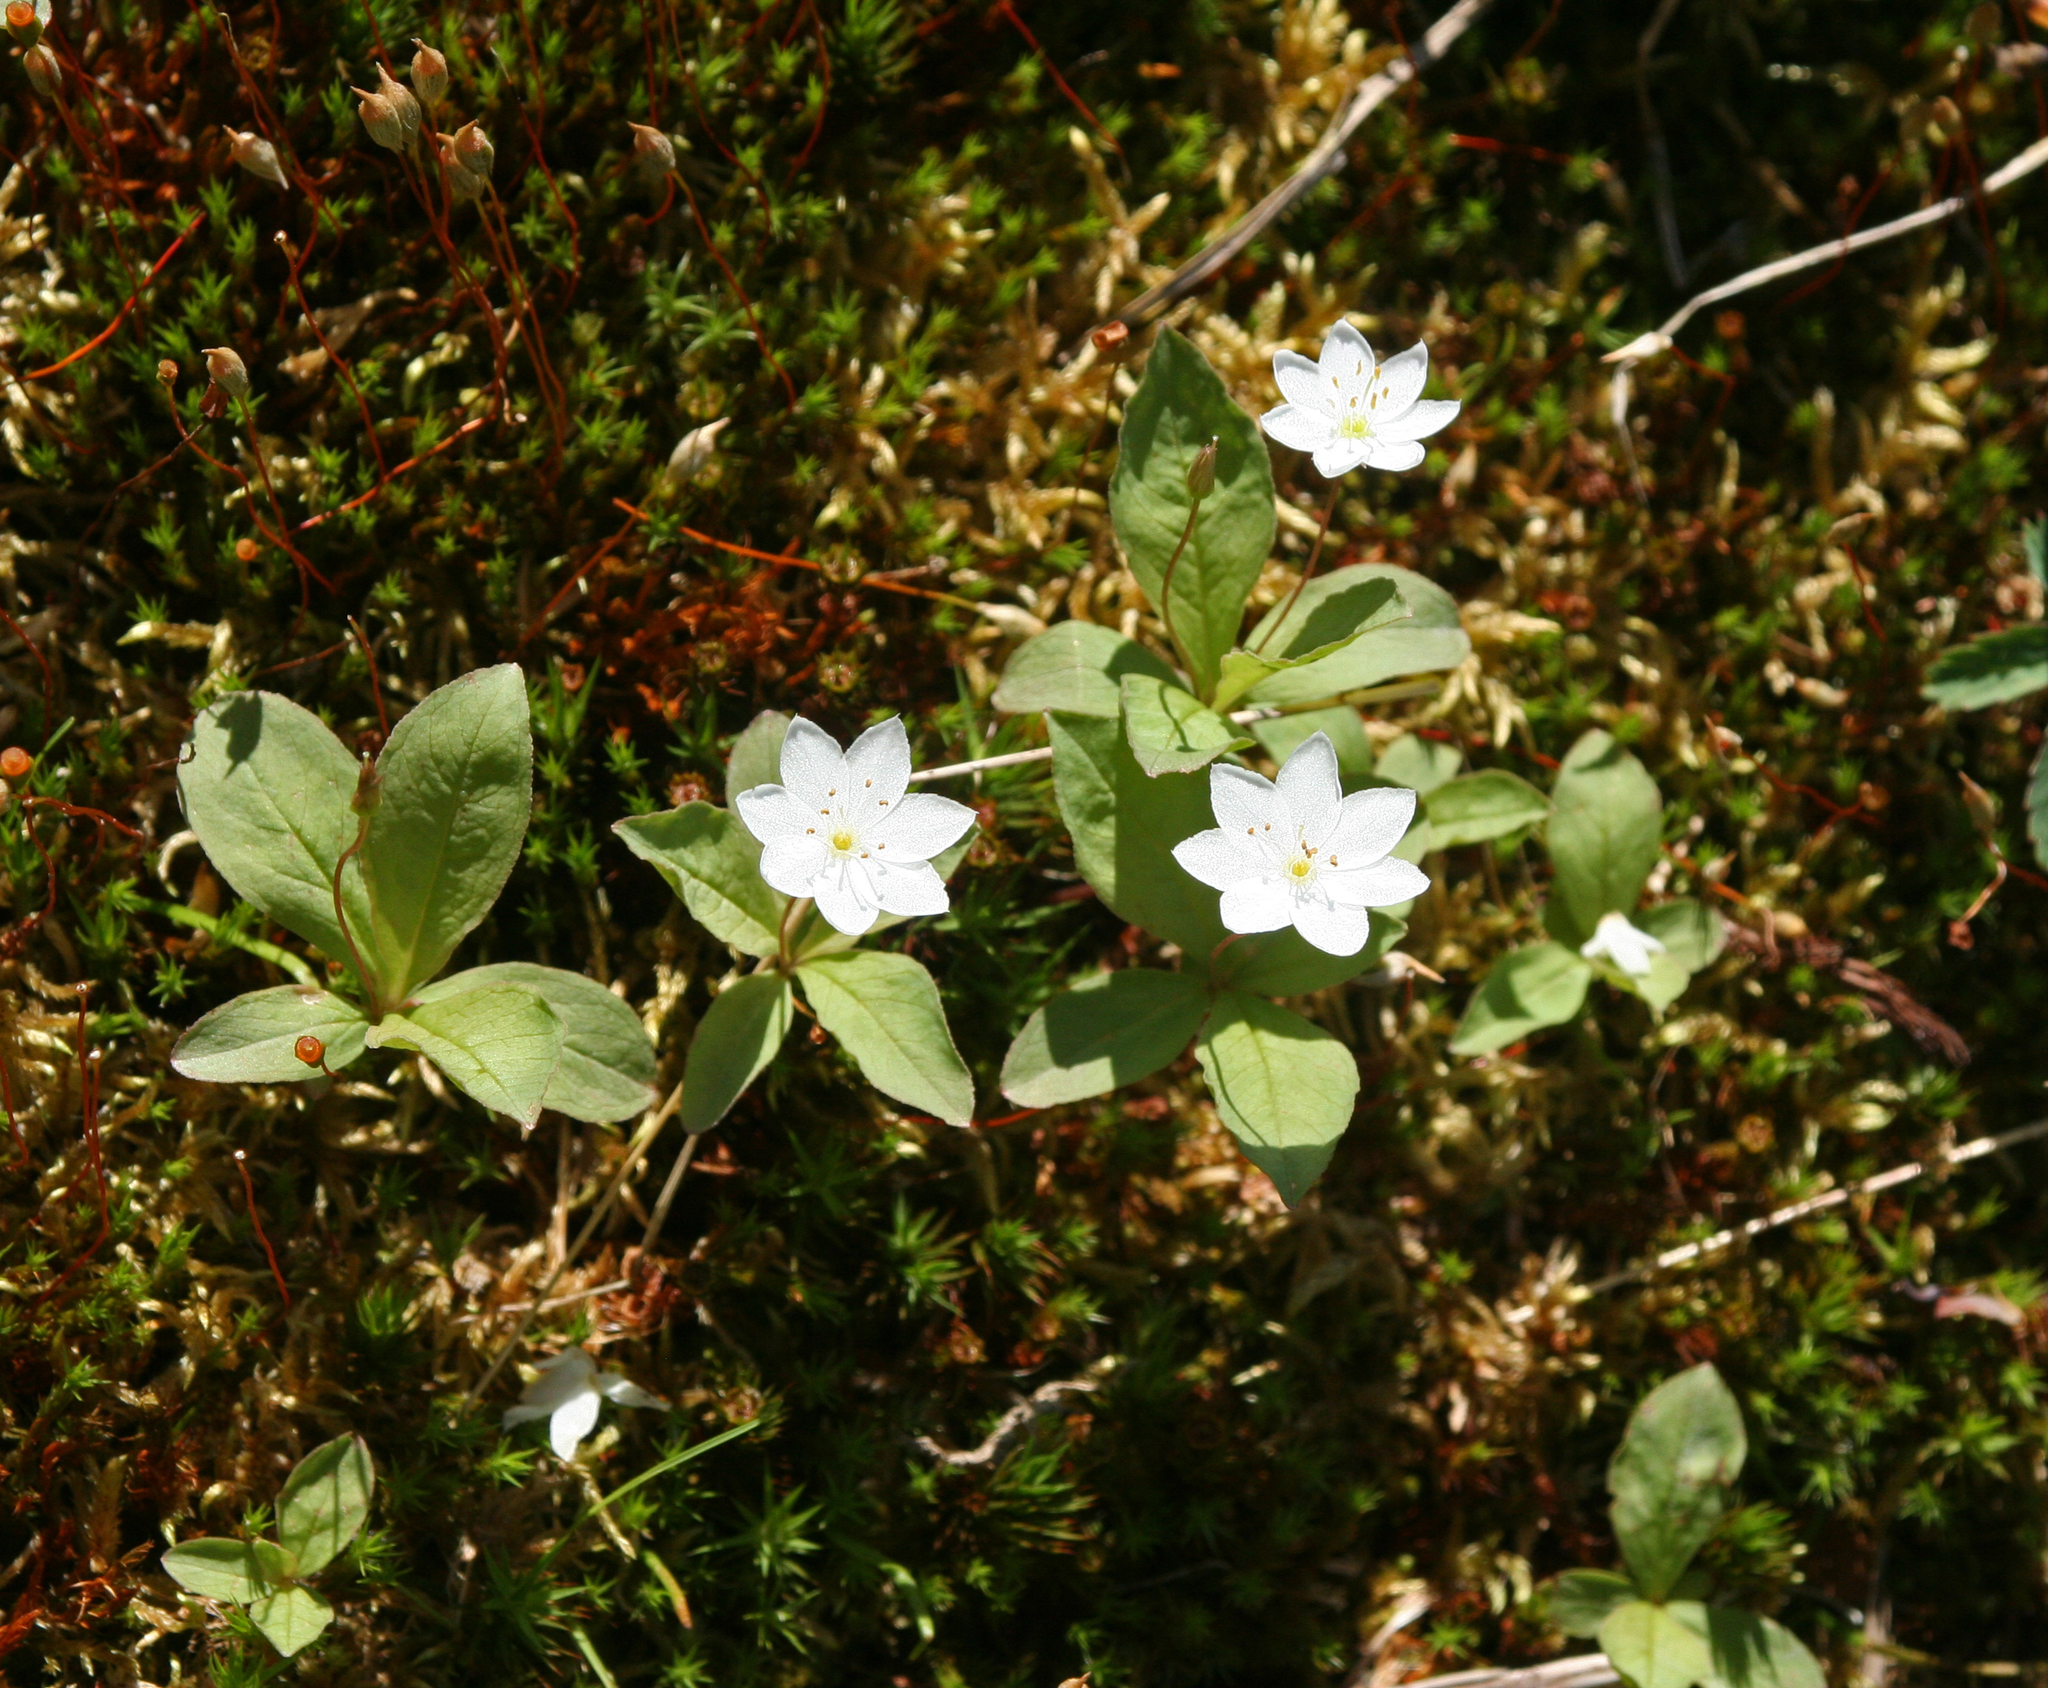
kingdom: Plantae
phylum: Tracheophyta
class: Magnoliopsida
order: Ericales
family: Primulaceae
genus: Lysimachia
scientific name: Lysimachia europaea
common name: Arctic starflower
